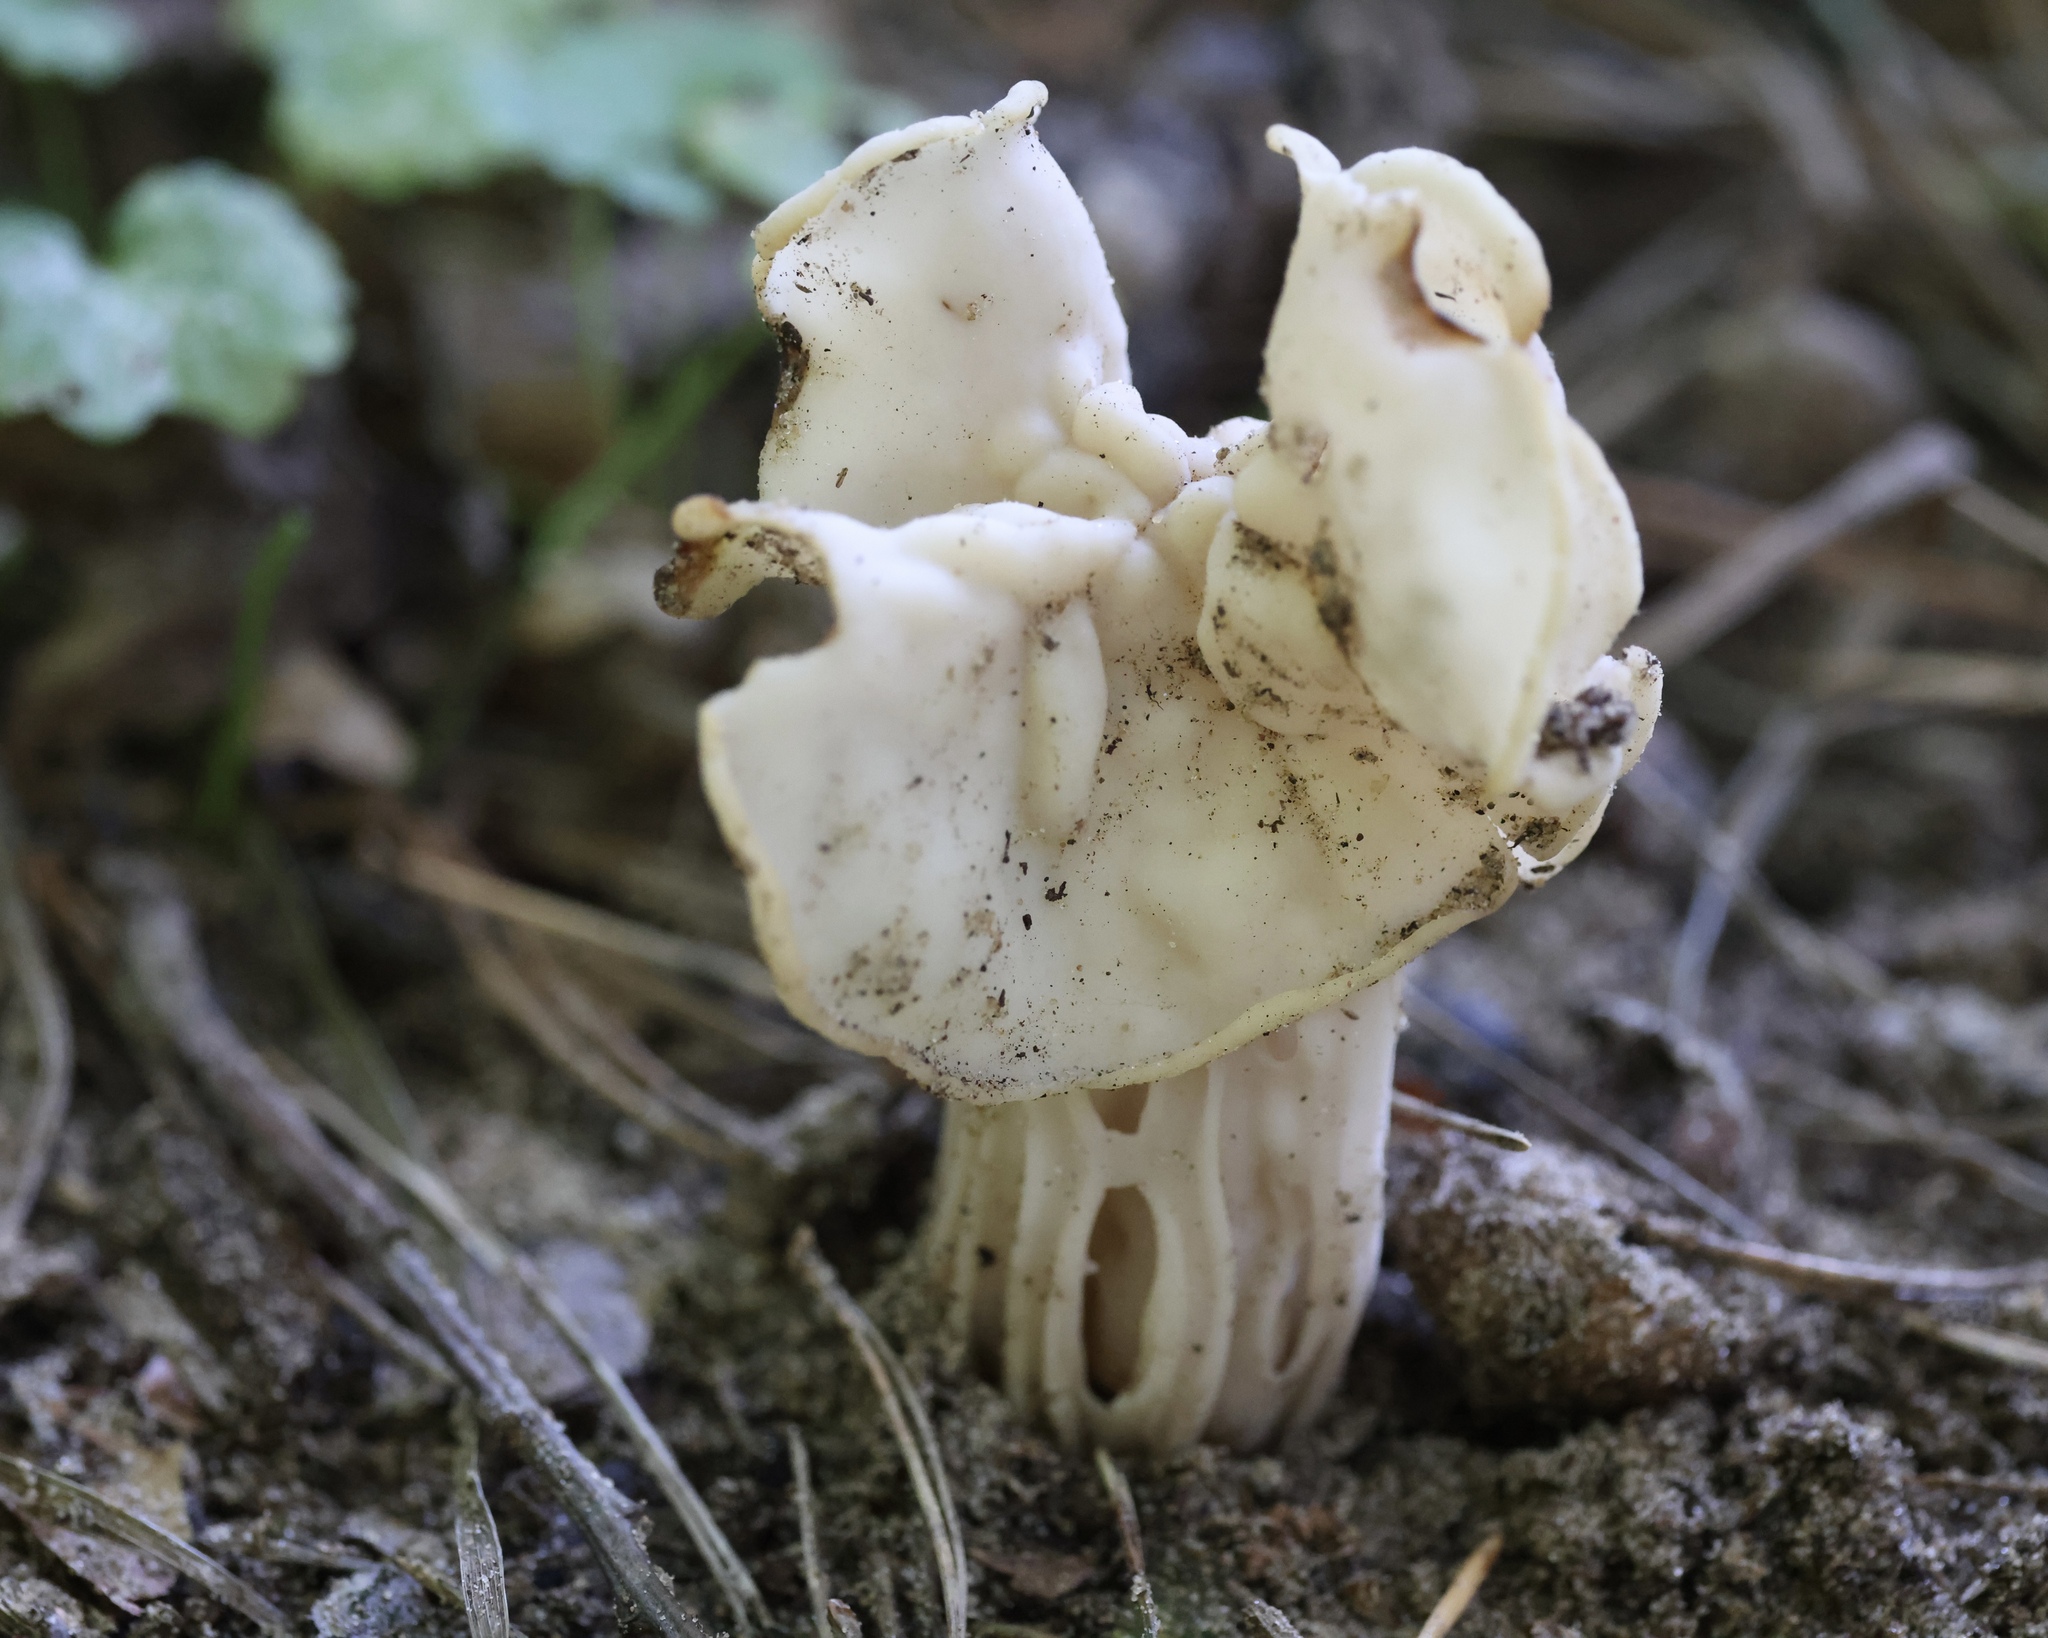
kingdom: Fungi
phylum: Ascomycota
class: Pezizomycetes
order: Pezizales
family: Helvellaceae
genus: Helvella
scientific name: Helvella crispa
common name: White saddle
